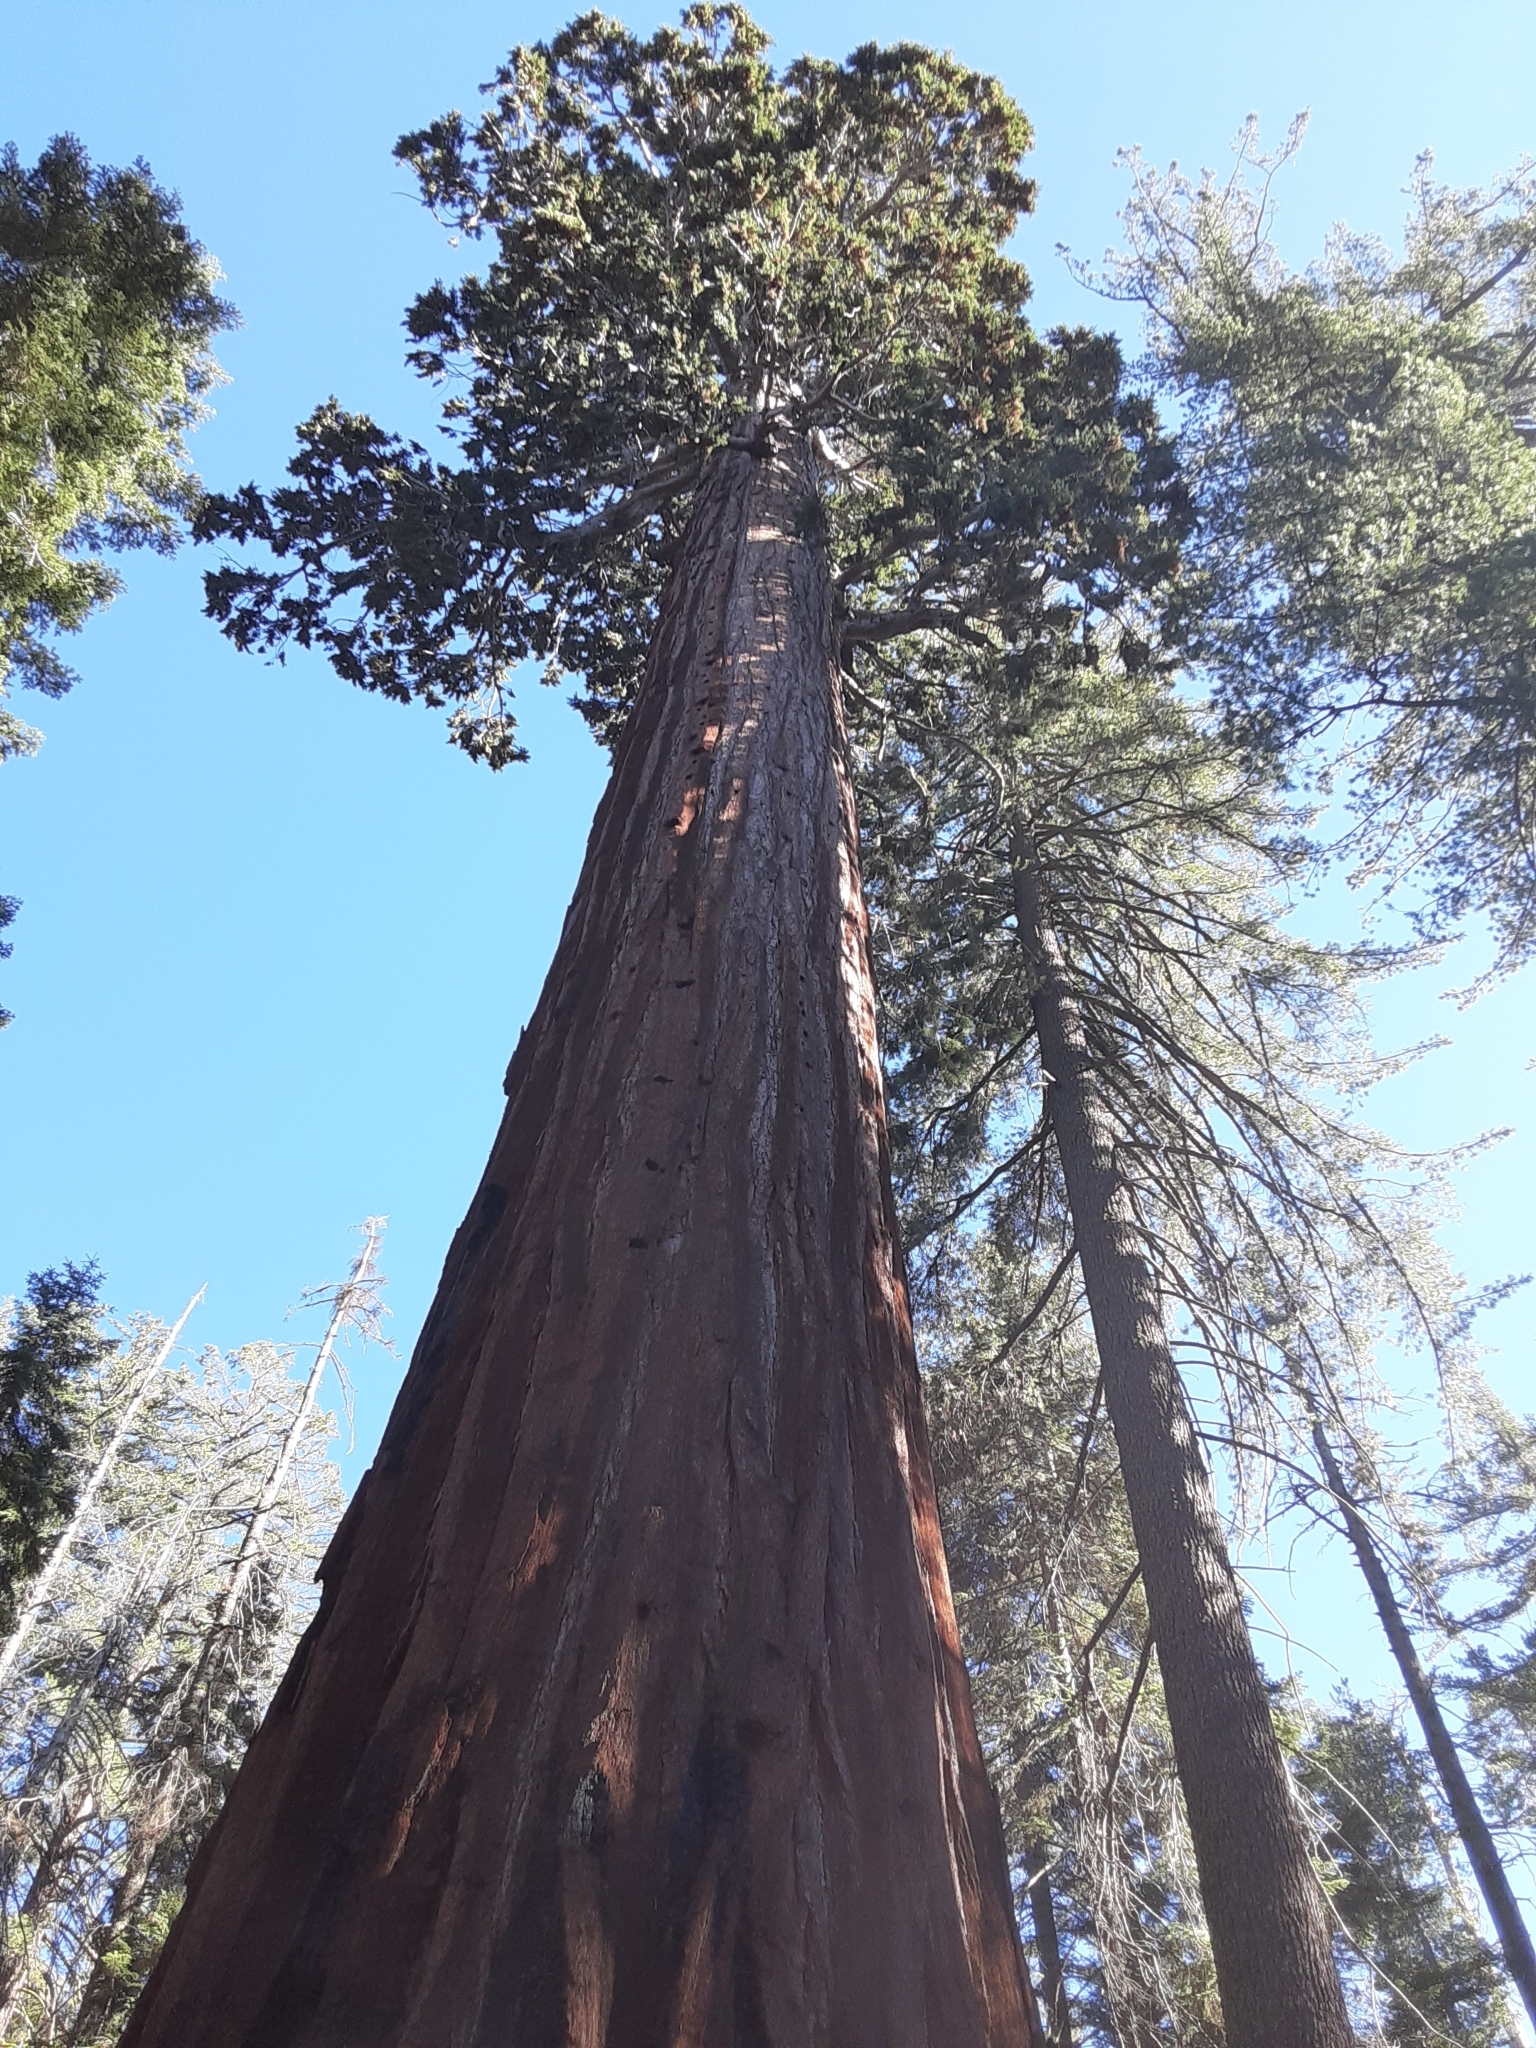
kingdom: Plantae
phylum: Tracheophyta
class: Pinopsida
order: Pinales
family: Cupressaceae
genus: Sequoiadendron
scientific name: Sequoiadendron giganteum
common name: Wellingtonia
